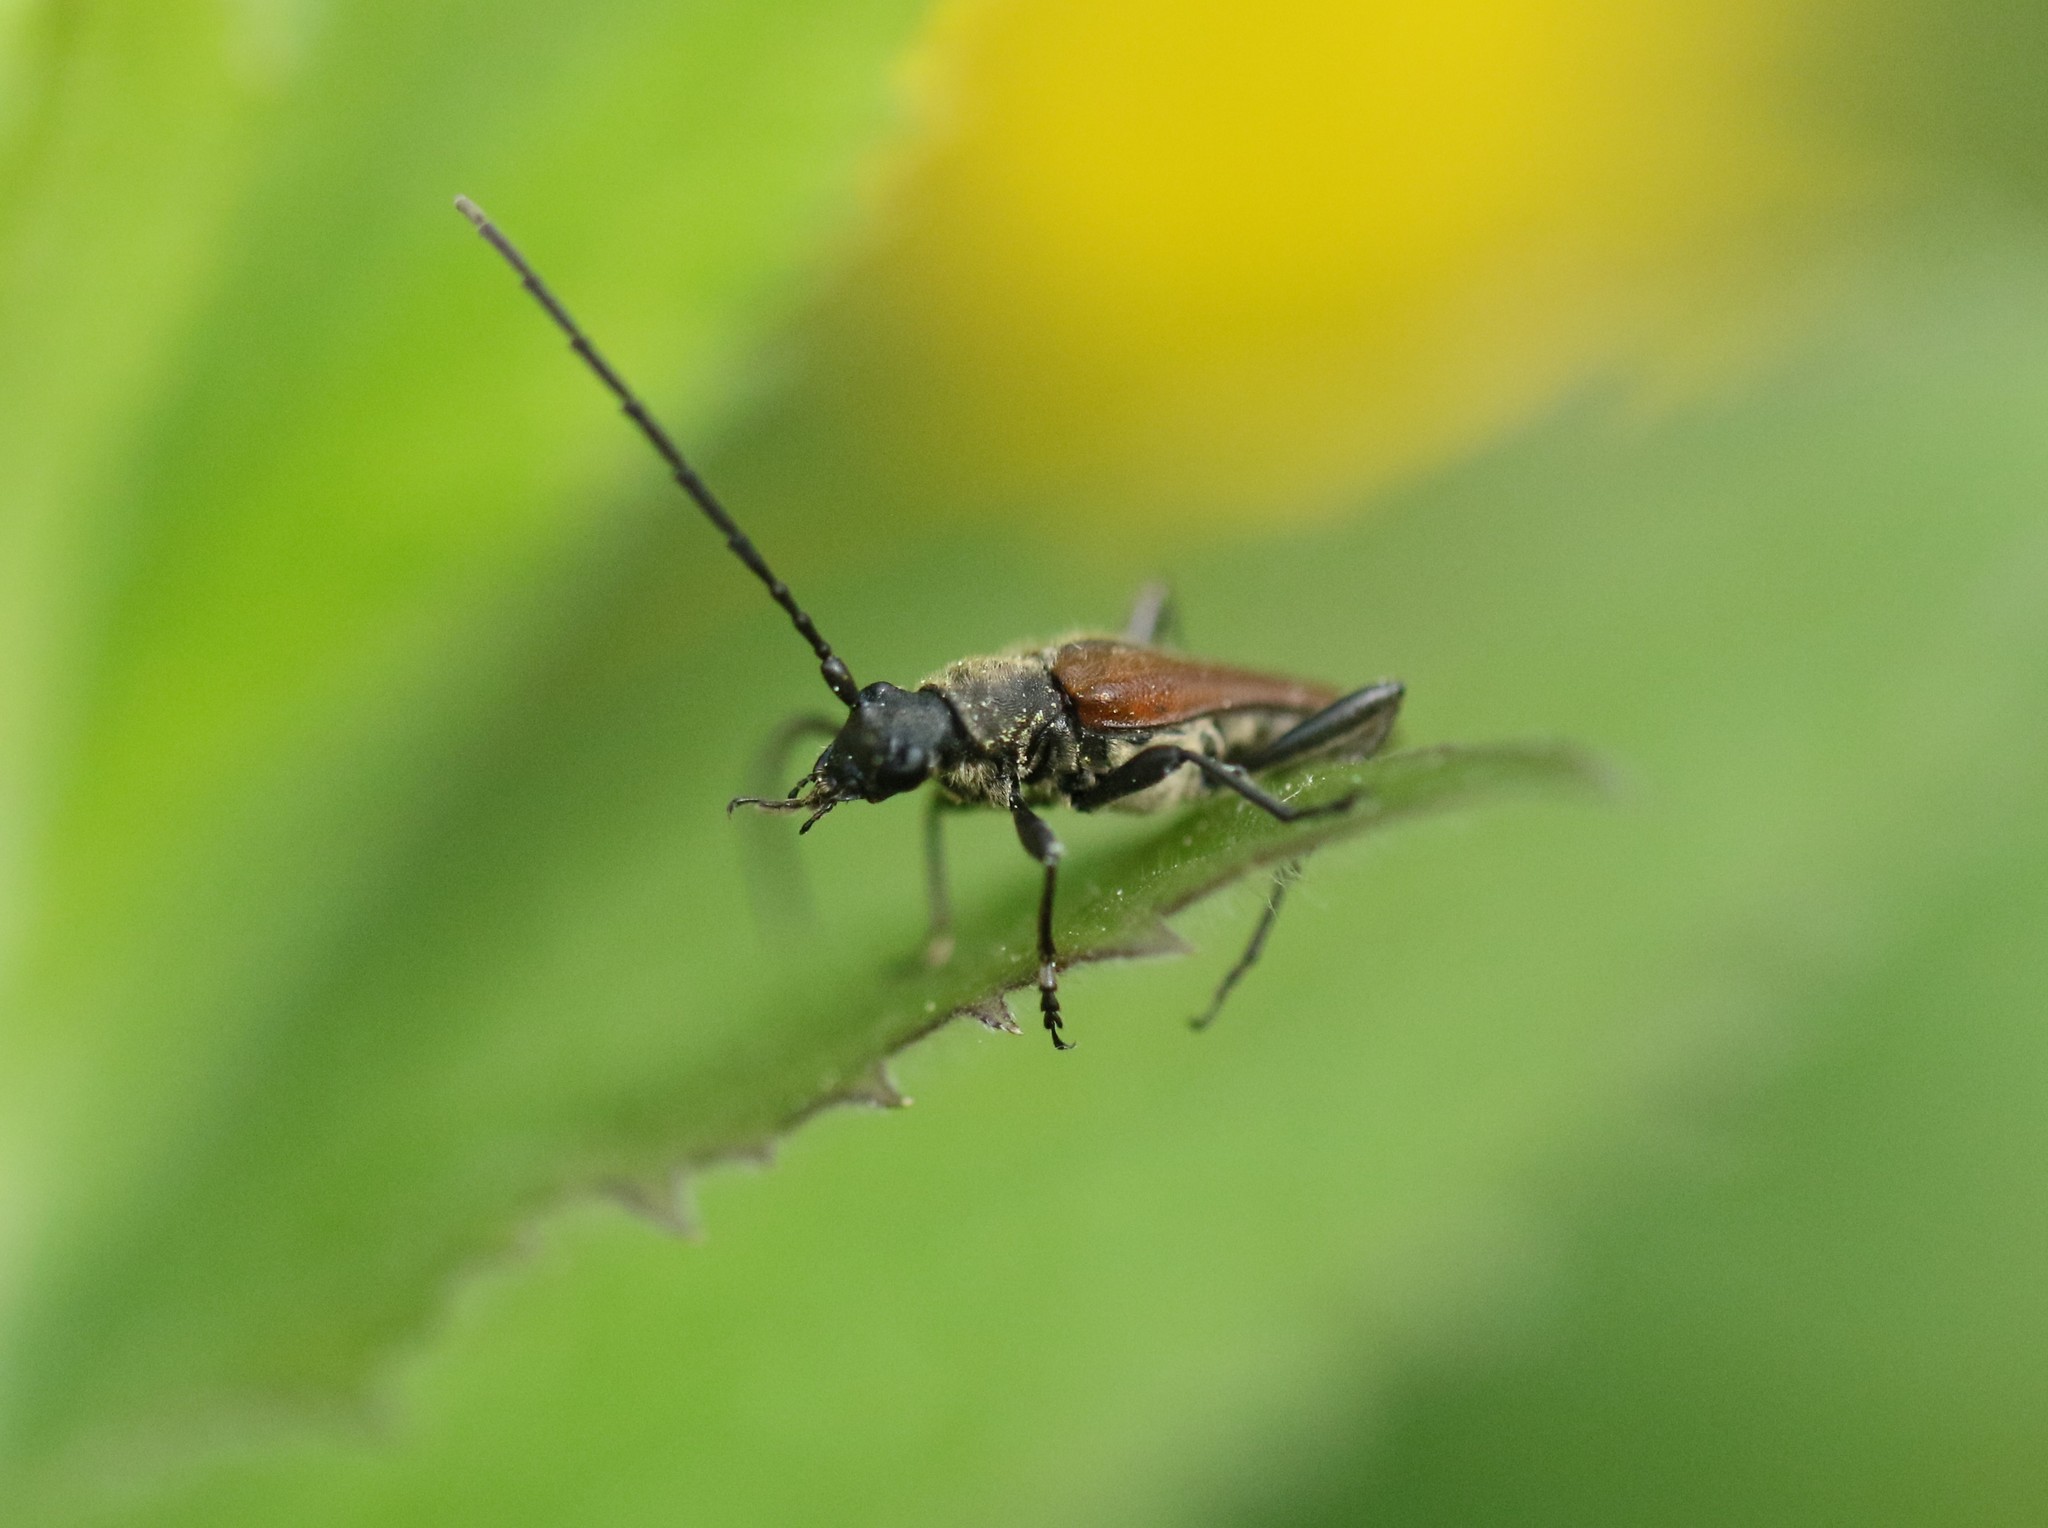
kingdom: Animalia
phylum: Arthropoda
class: Insecta
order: Coleoptera
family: Cerambycidae
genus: Trachysida
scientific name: Trachysida mutabilis
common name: Changeable flower longhorn
